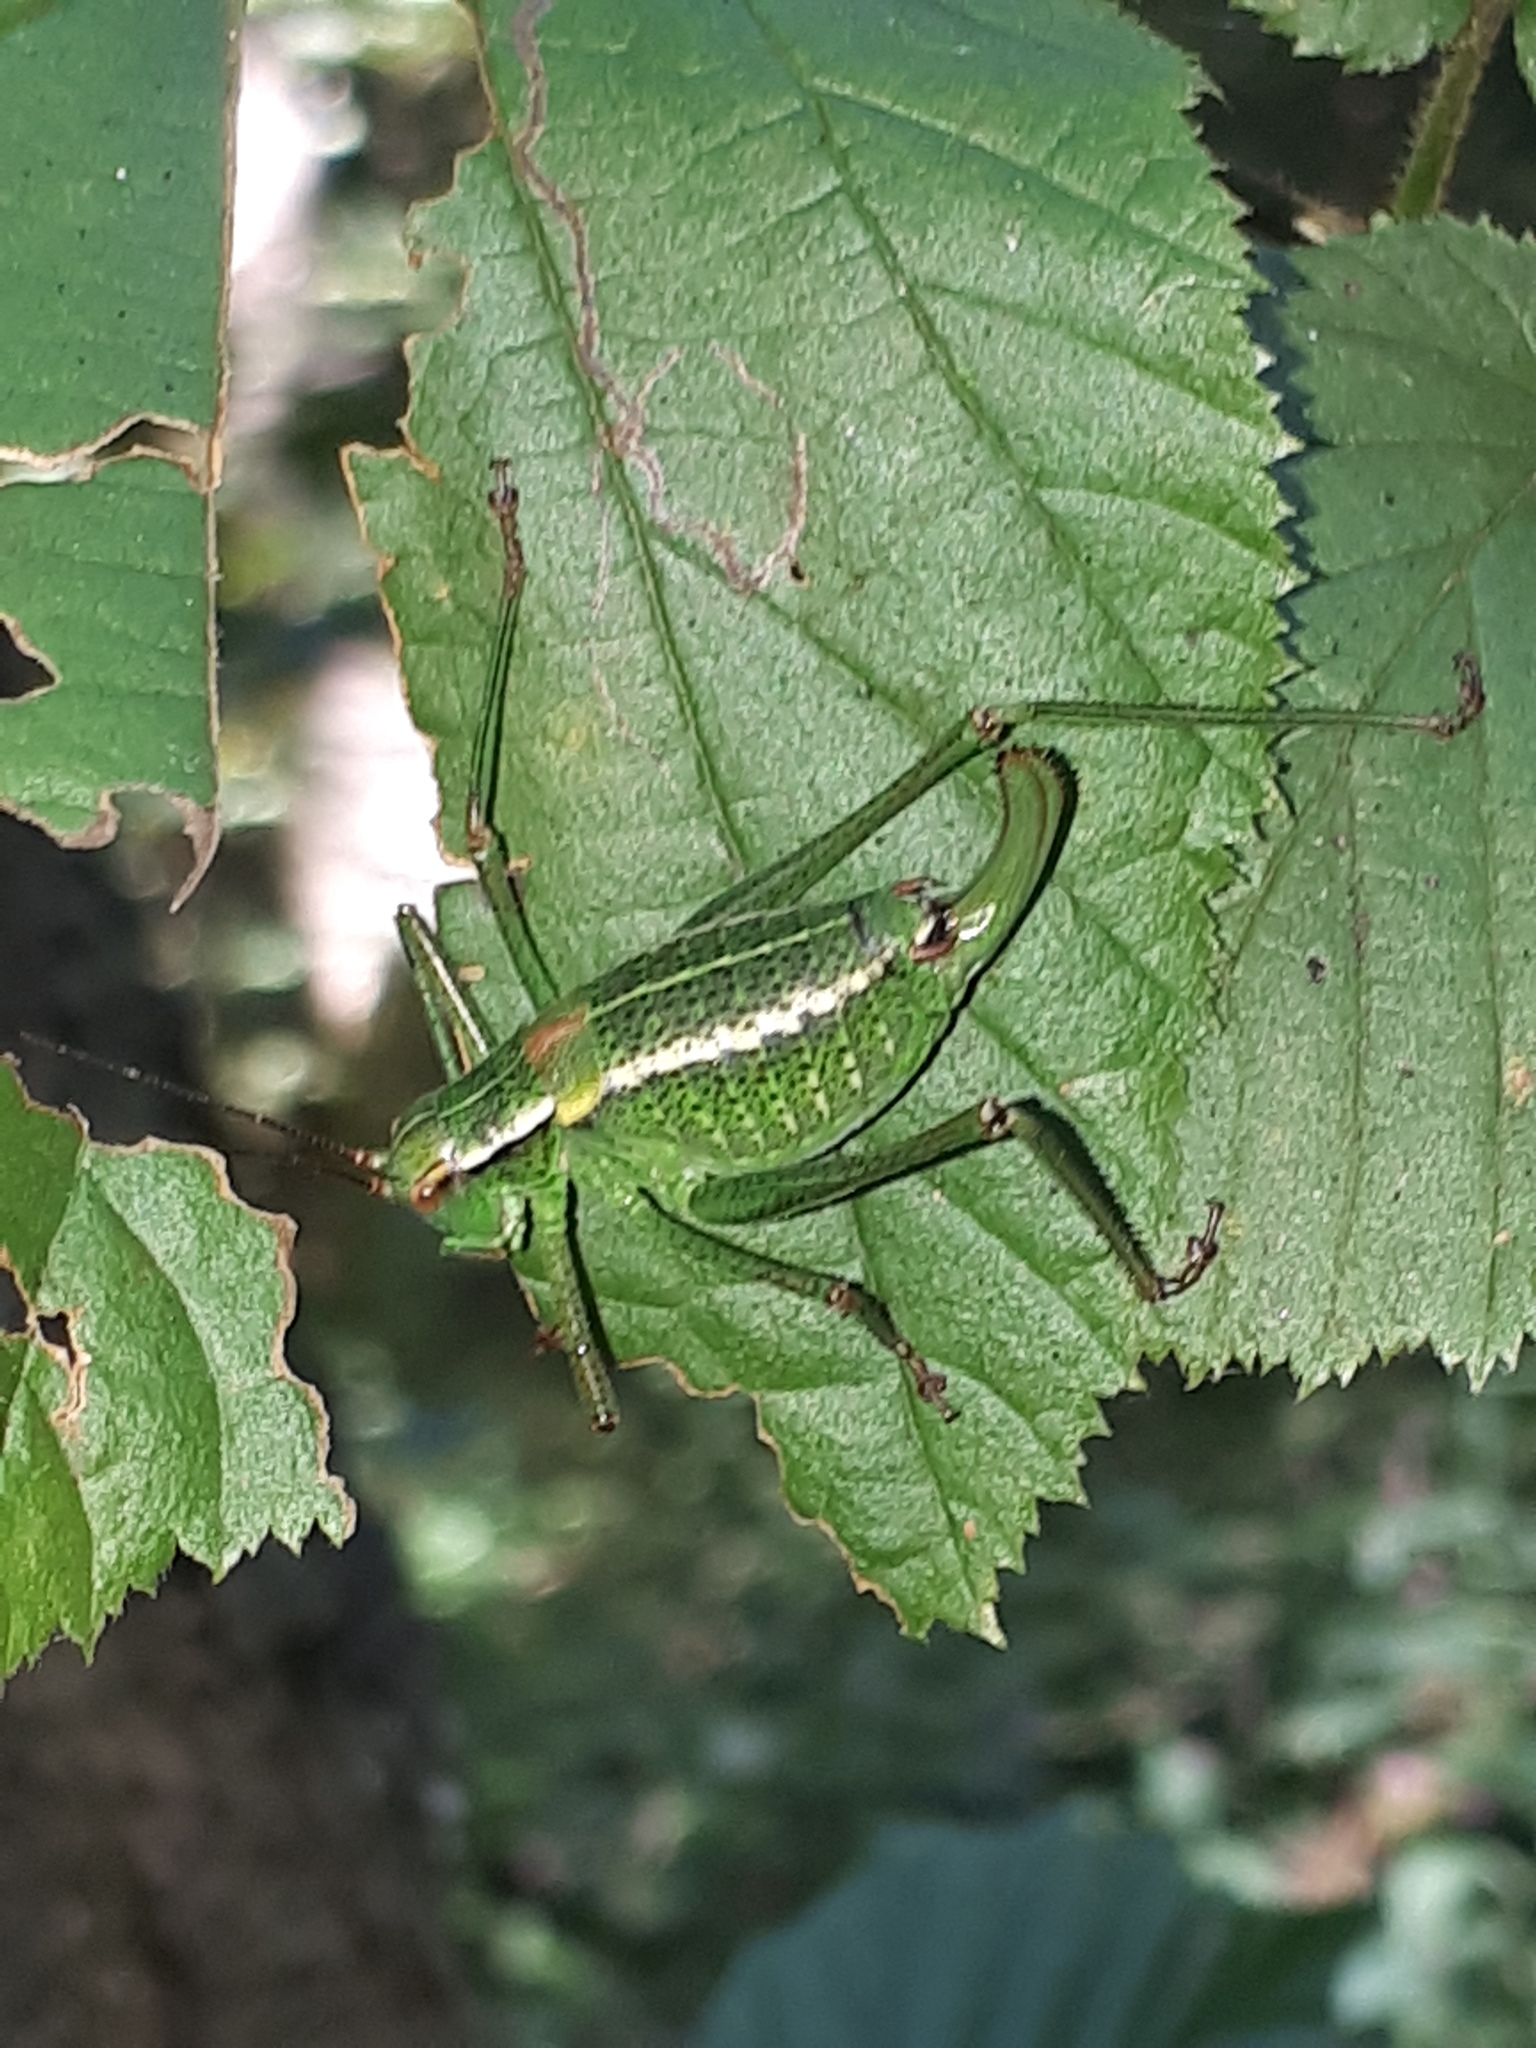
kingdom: Animalia
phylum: Arthropoda
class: Insecta
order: Orthoptera
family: Tettigoniidae
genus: Barbitistes
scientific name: Barbitistes constrictus
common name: Eastern saw-tailed bush cricket
